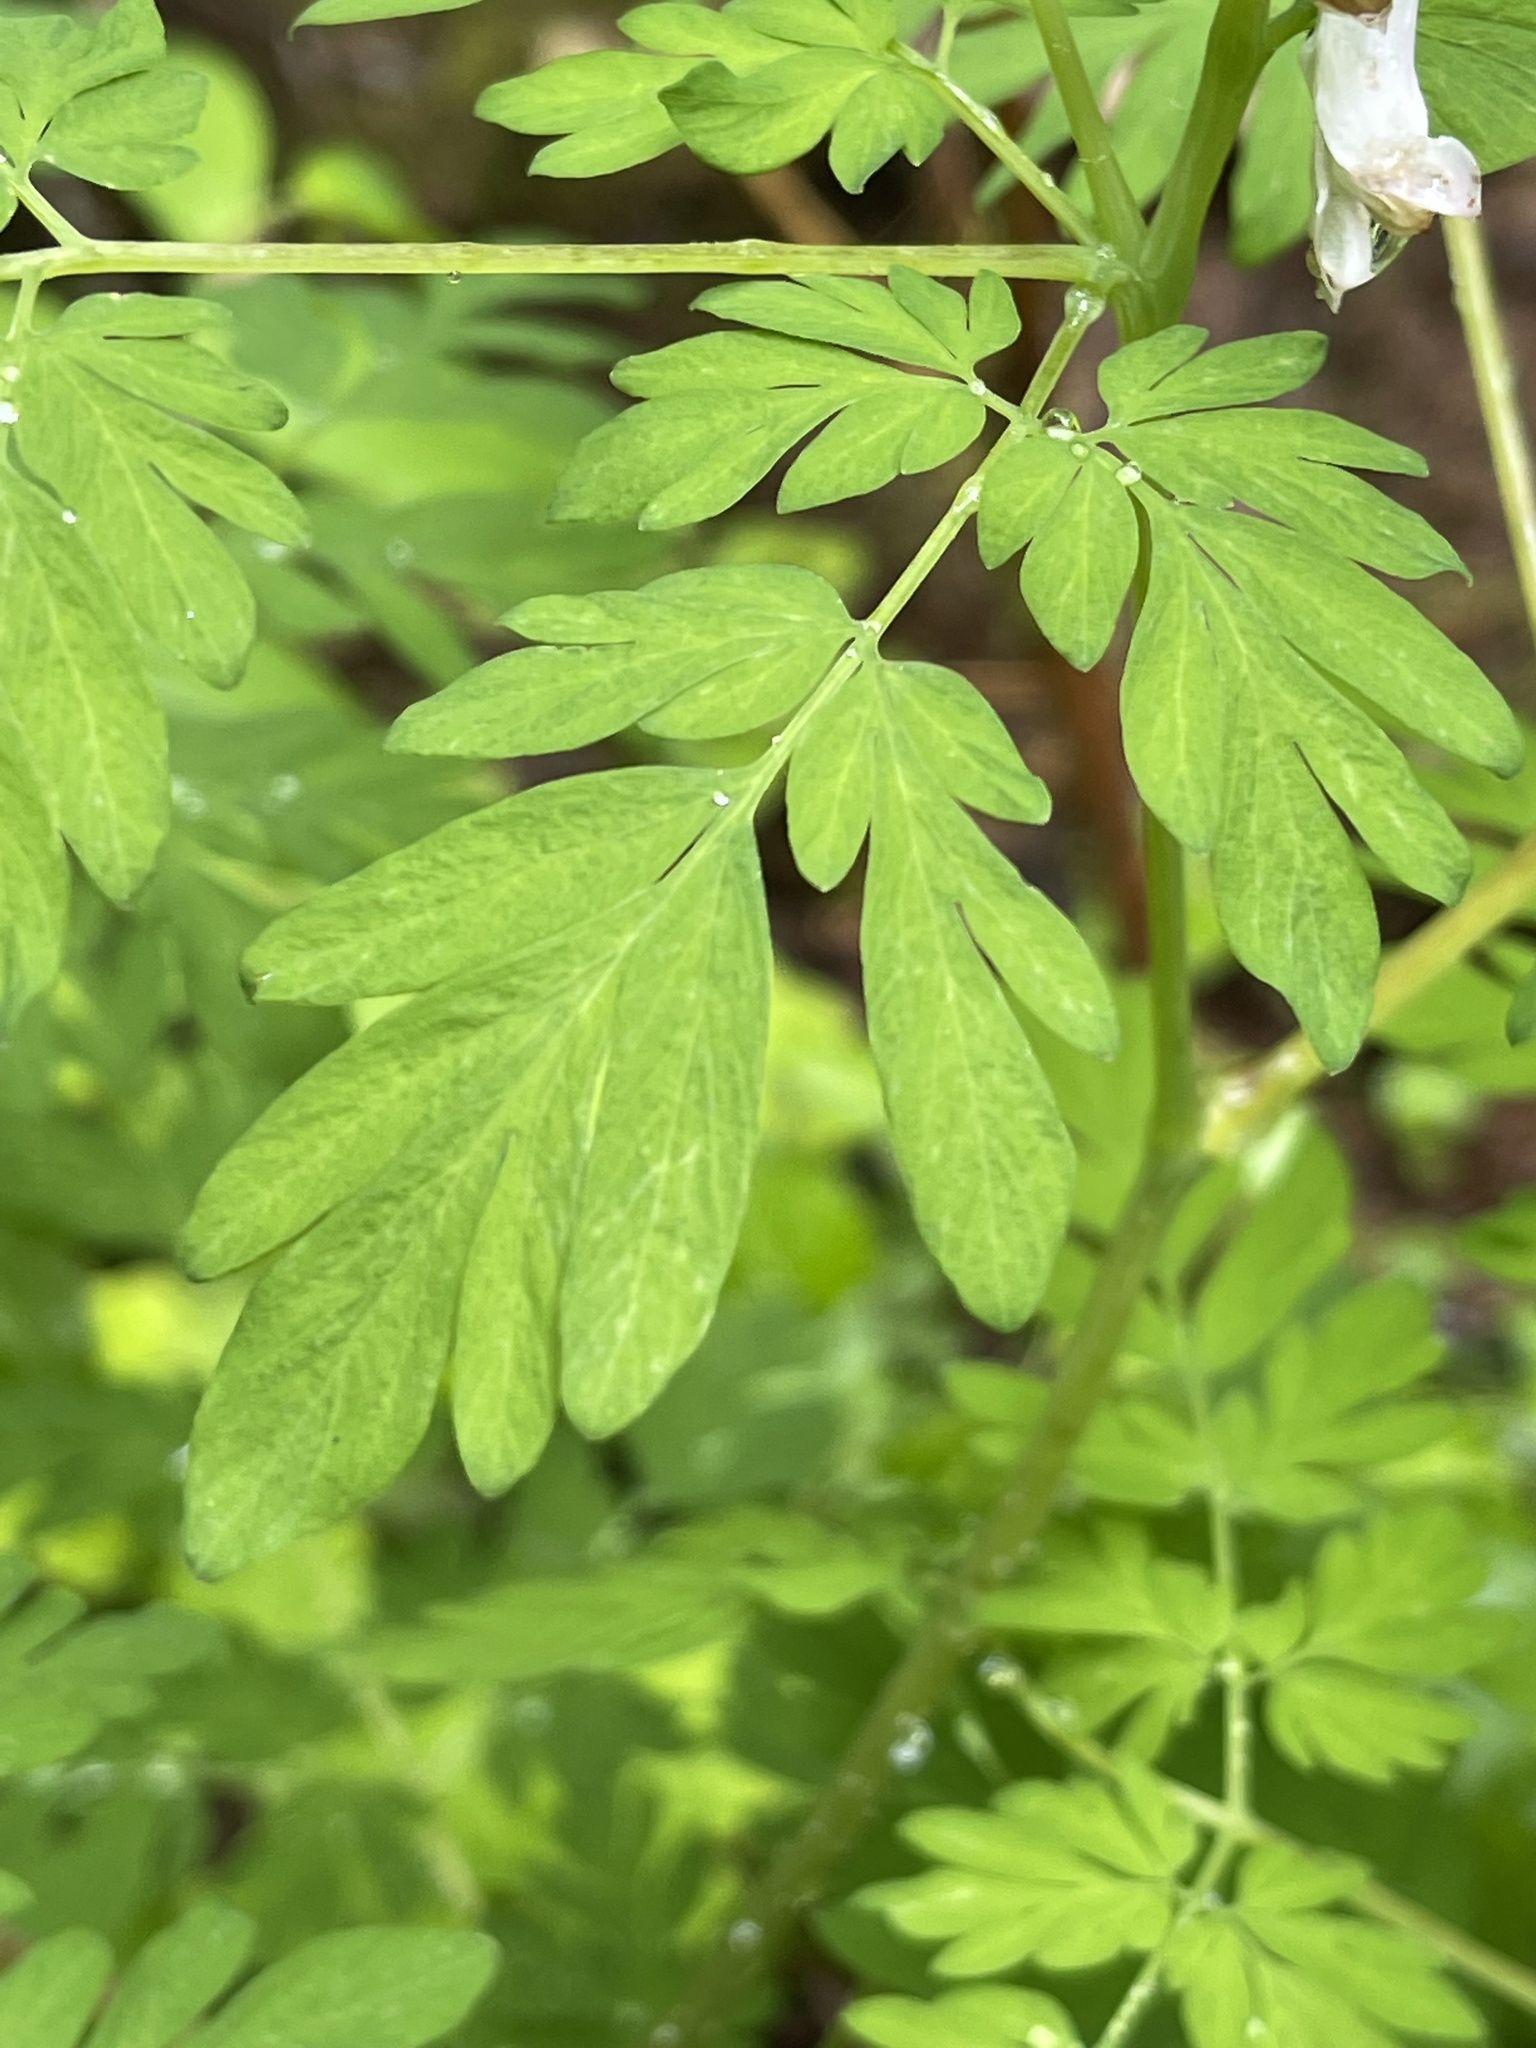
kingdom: Plantae
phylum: Tracheophyta
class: Magnoliopsida
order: Ranunculales
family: Papaveraceae
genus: Corydalis
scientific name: Corydalis scouleri
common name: Scouler's corydalis
